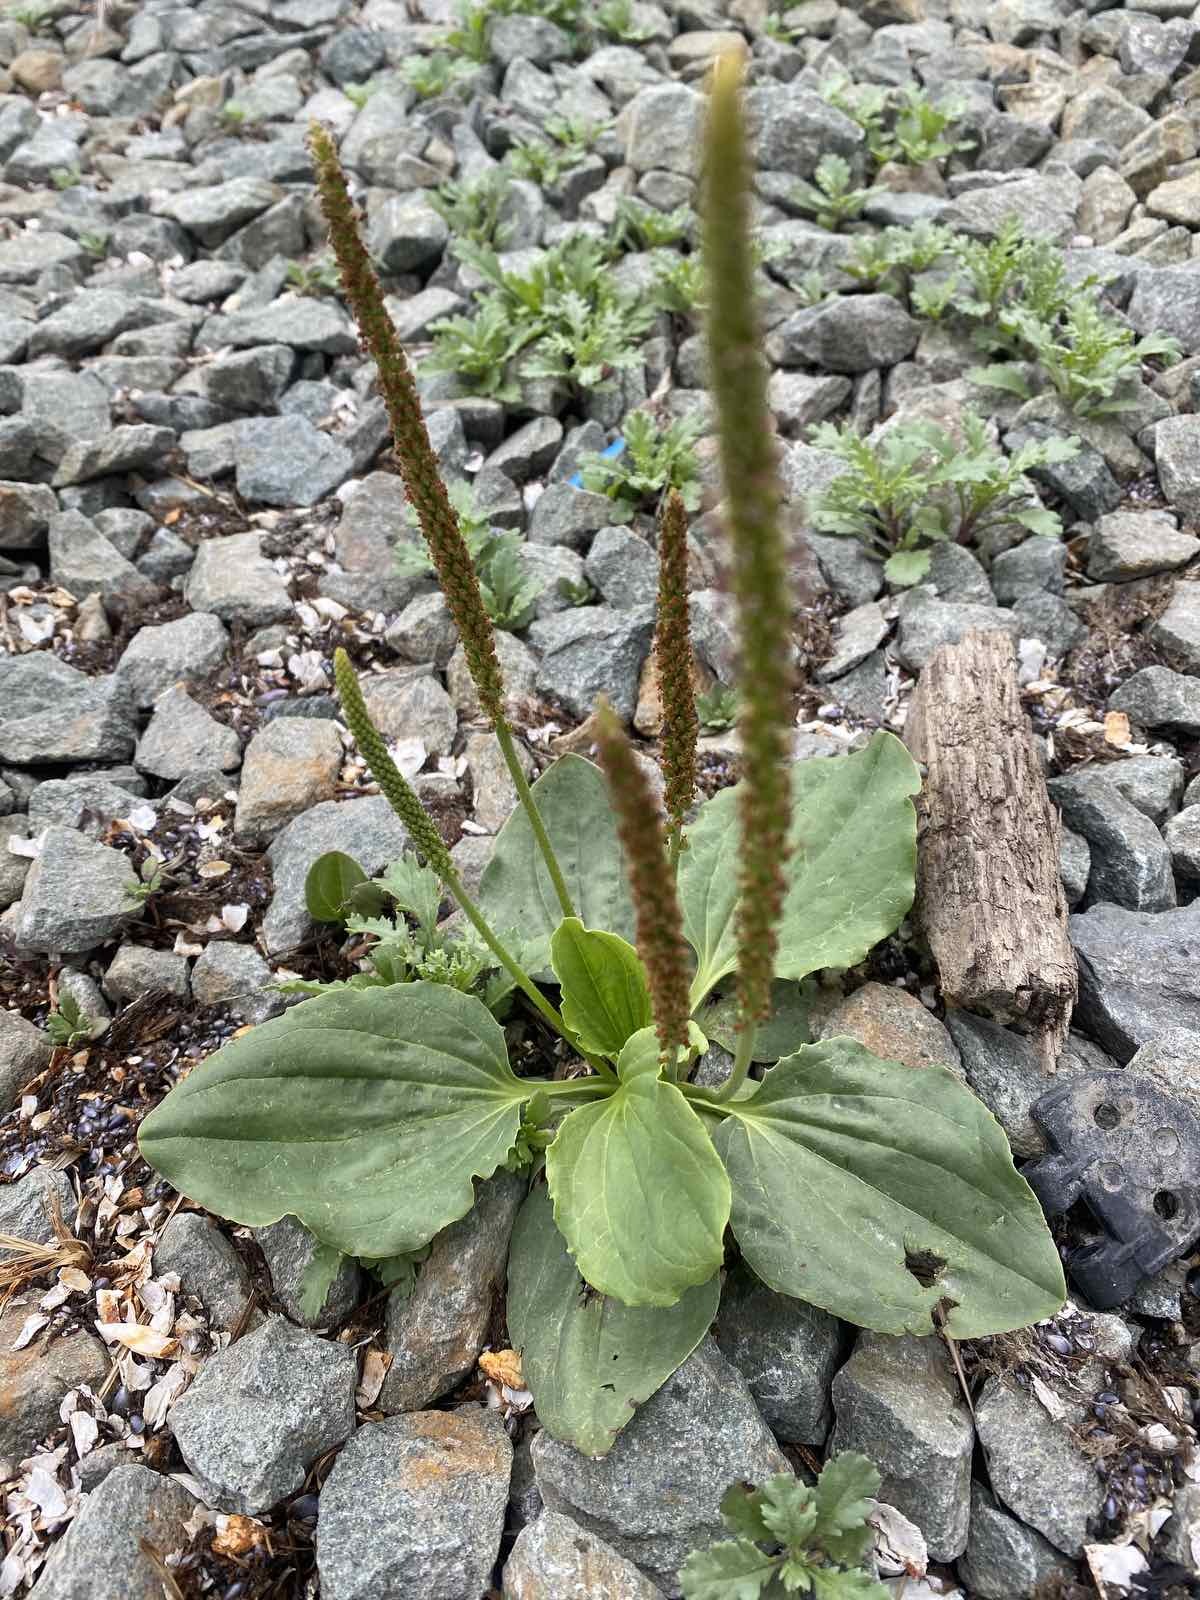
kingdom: Plantae
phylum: Tracheophyta
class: Magnoliopsida
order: Lamiales
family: Plantaginaceae
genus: Plantago
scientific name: Plantago major
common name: Common plantain
